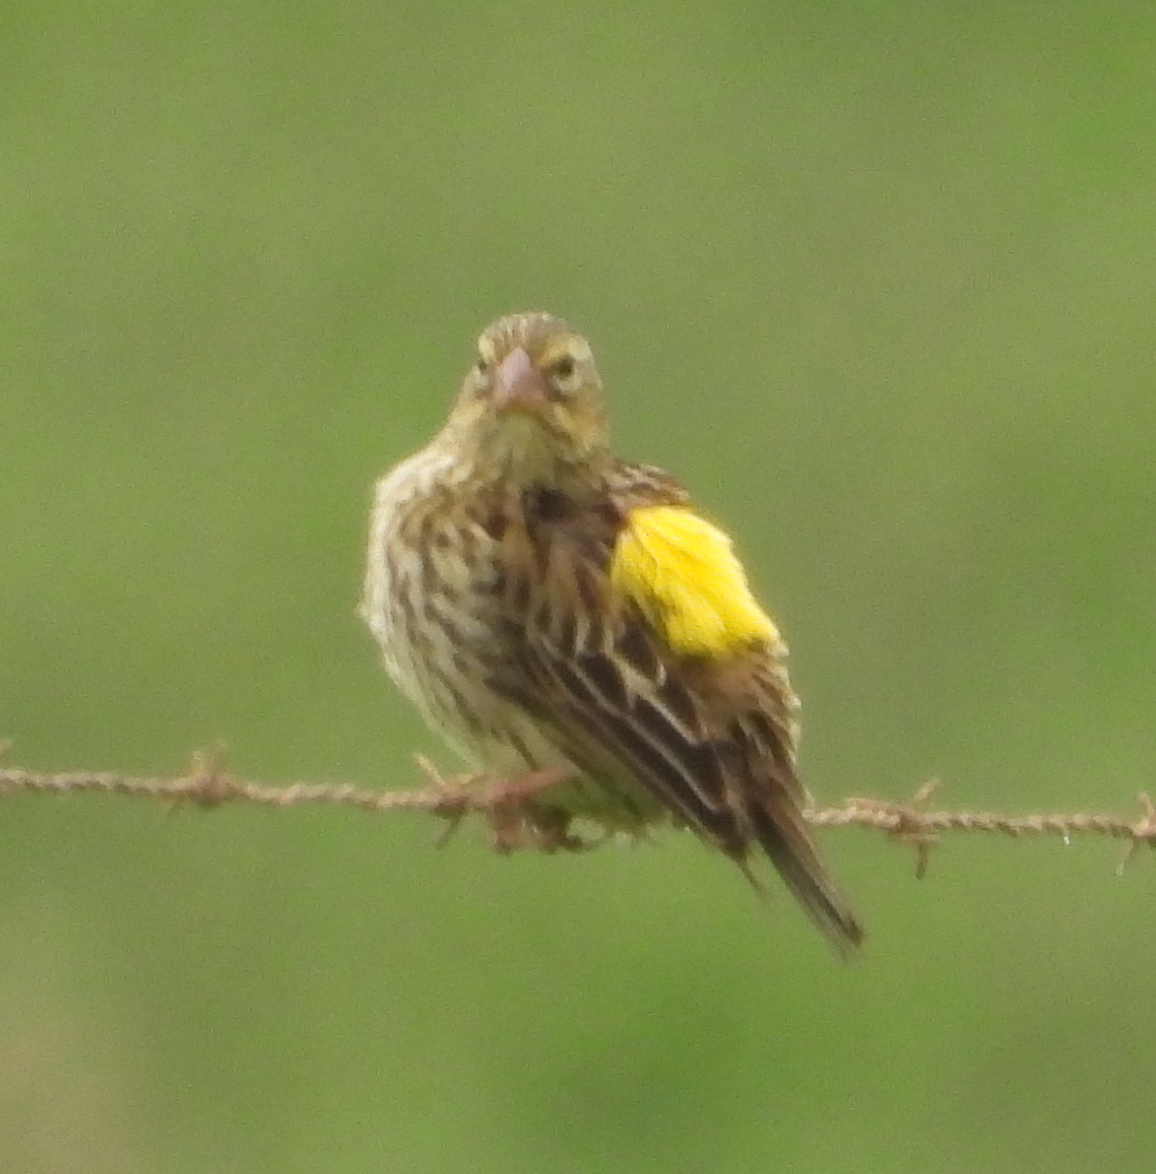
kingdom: Animalia
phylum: Chordata
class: Aves
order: Passeriformes
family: Ploceidae
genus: Euplectes
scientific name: Euplectes capensis
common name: Yellow bishop
